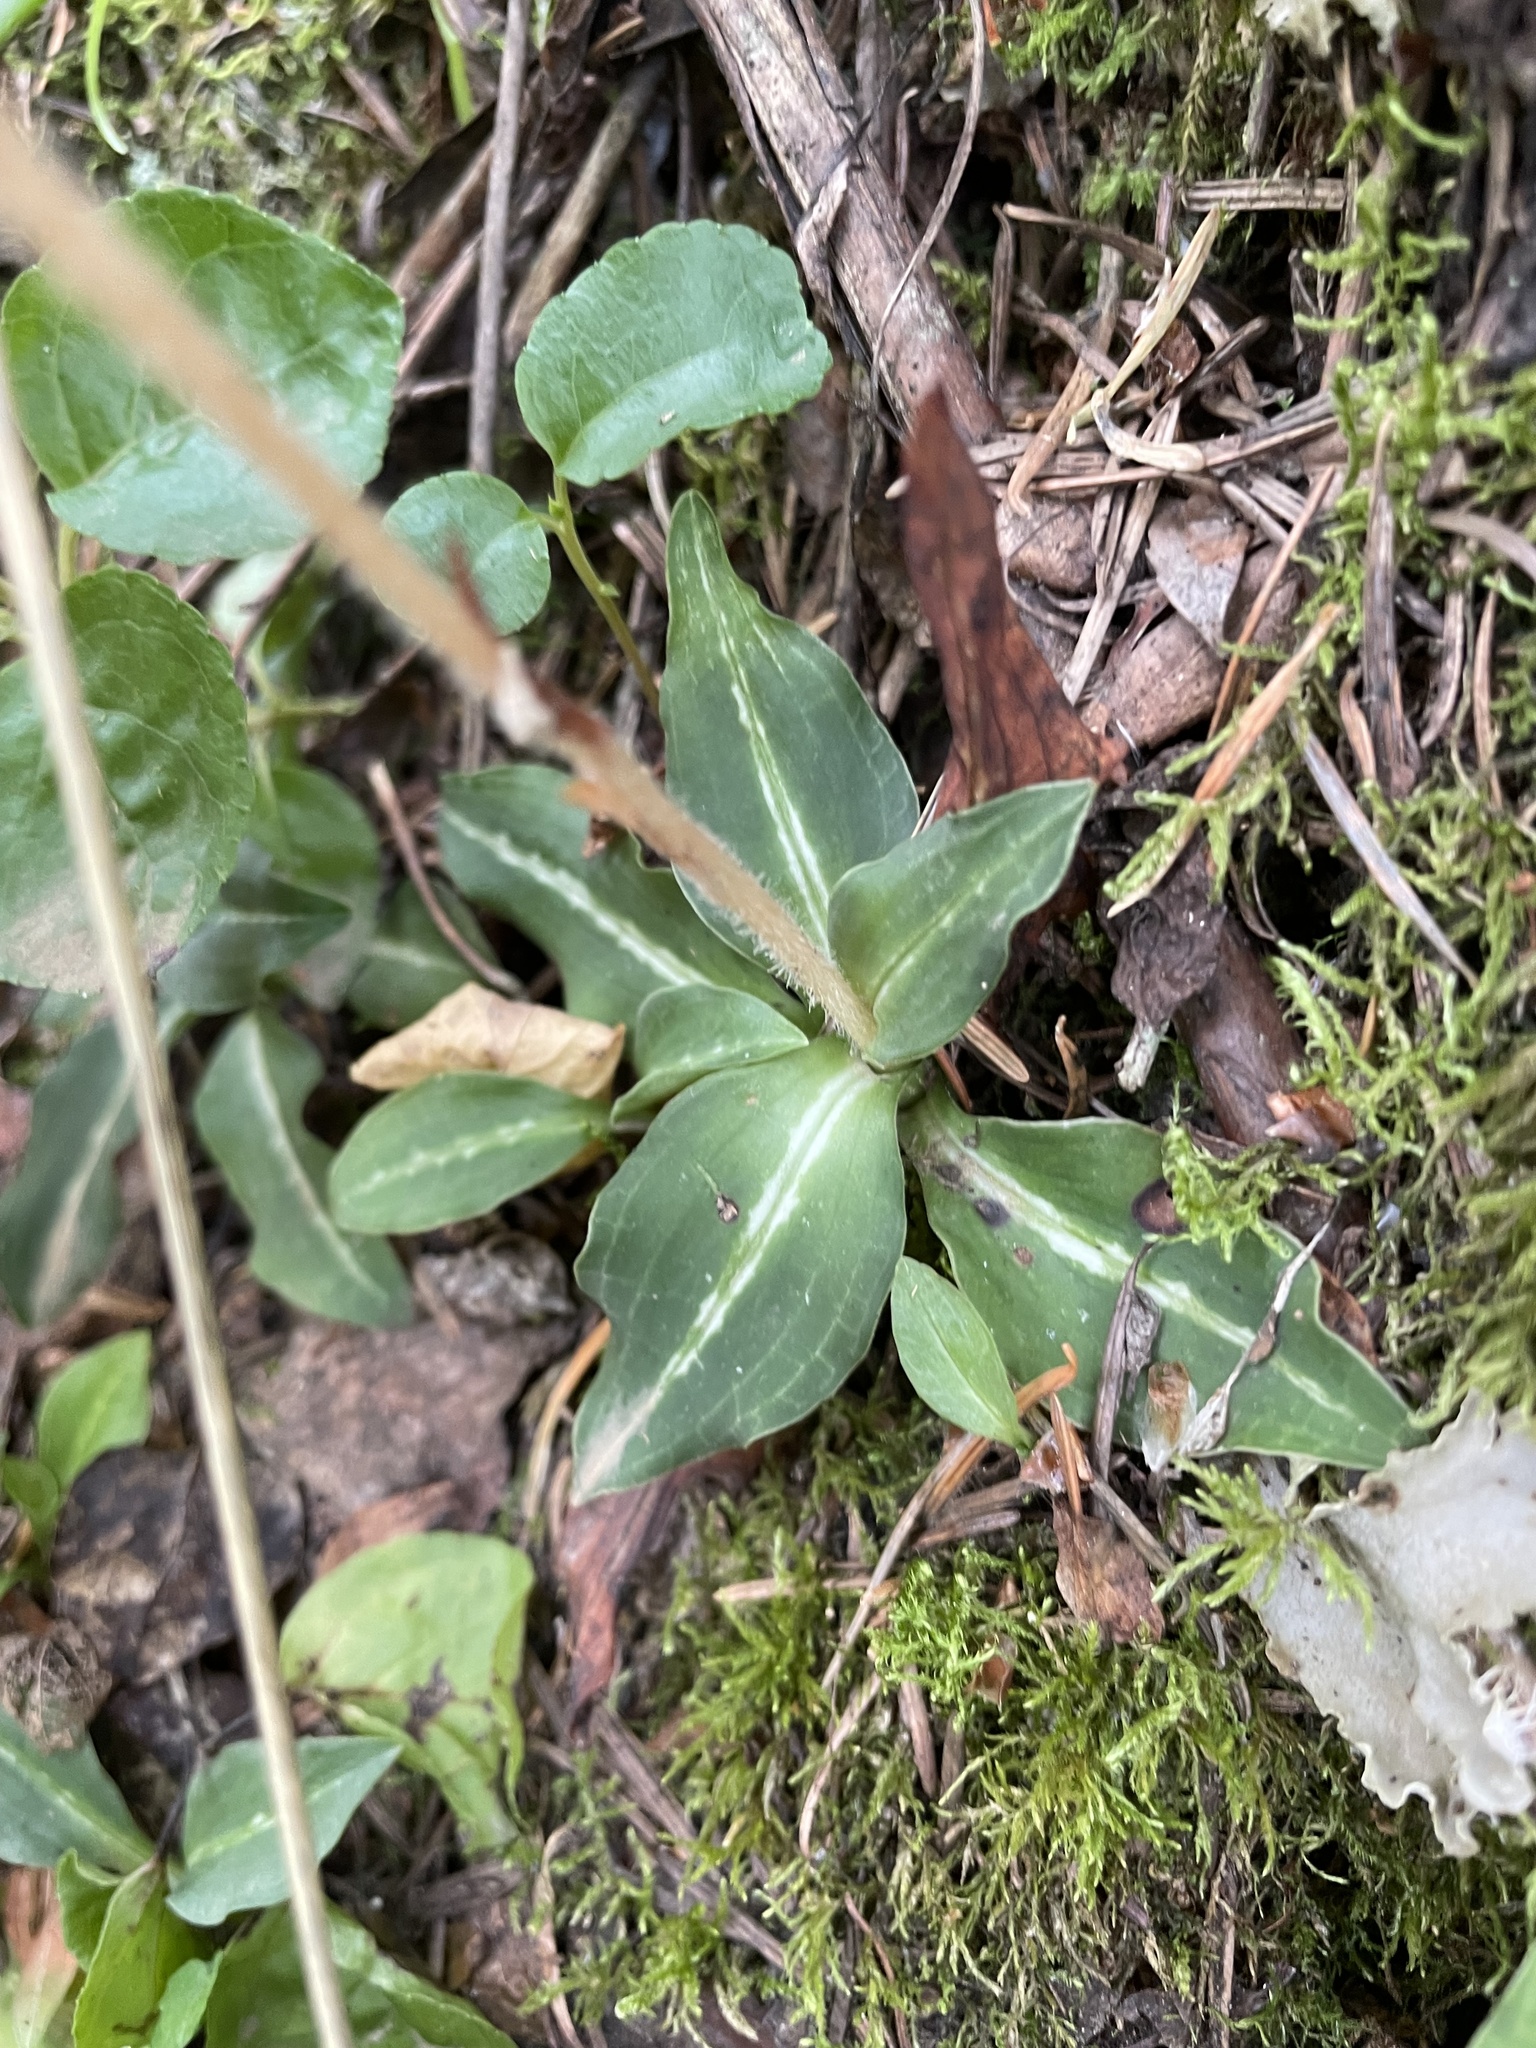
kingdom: Plantae
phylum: Tracheophyta
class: Liliopsida
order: Asparagales
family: Orchidaceae
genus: Goodyera
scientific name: Goodyera oblongifolia
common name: Giant rattlesnake-plantain
